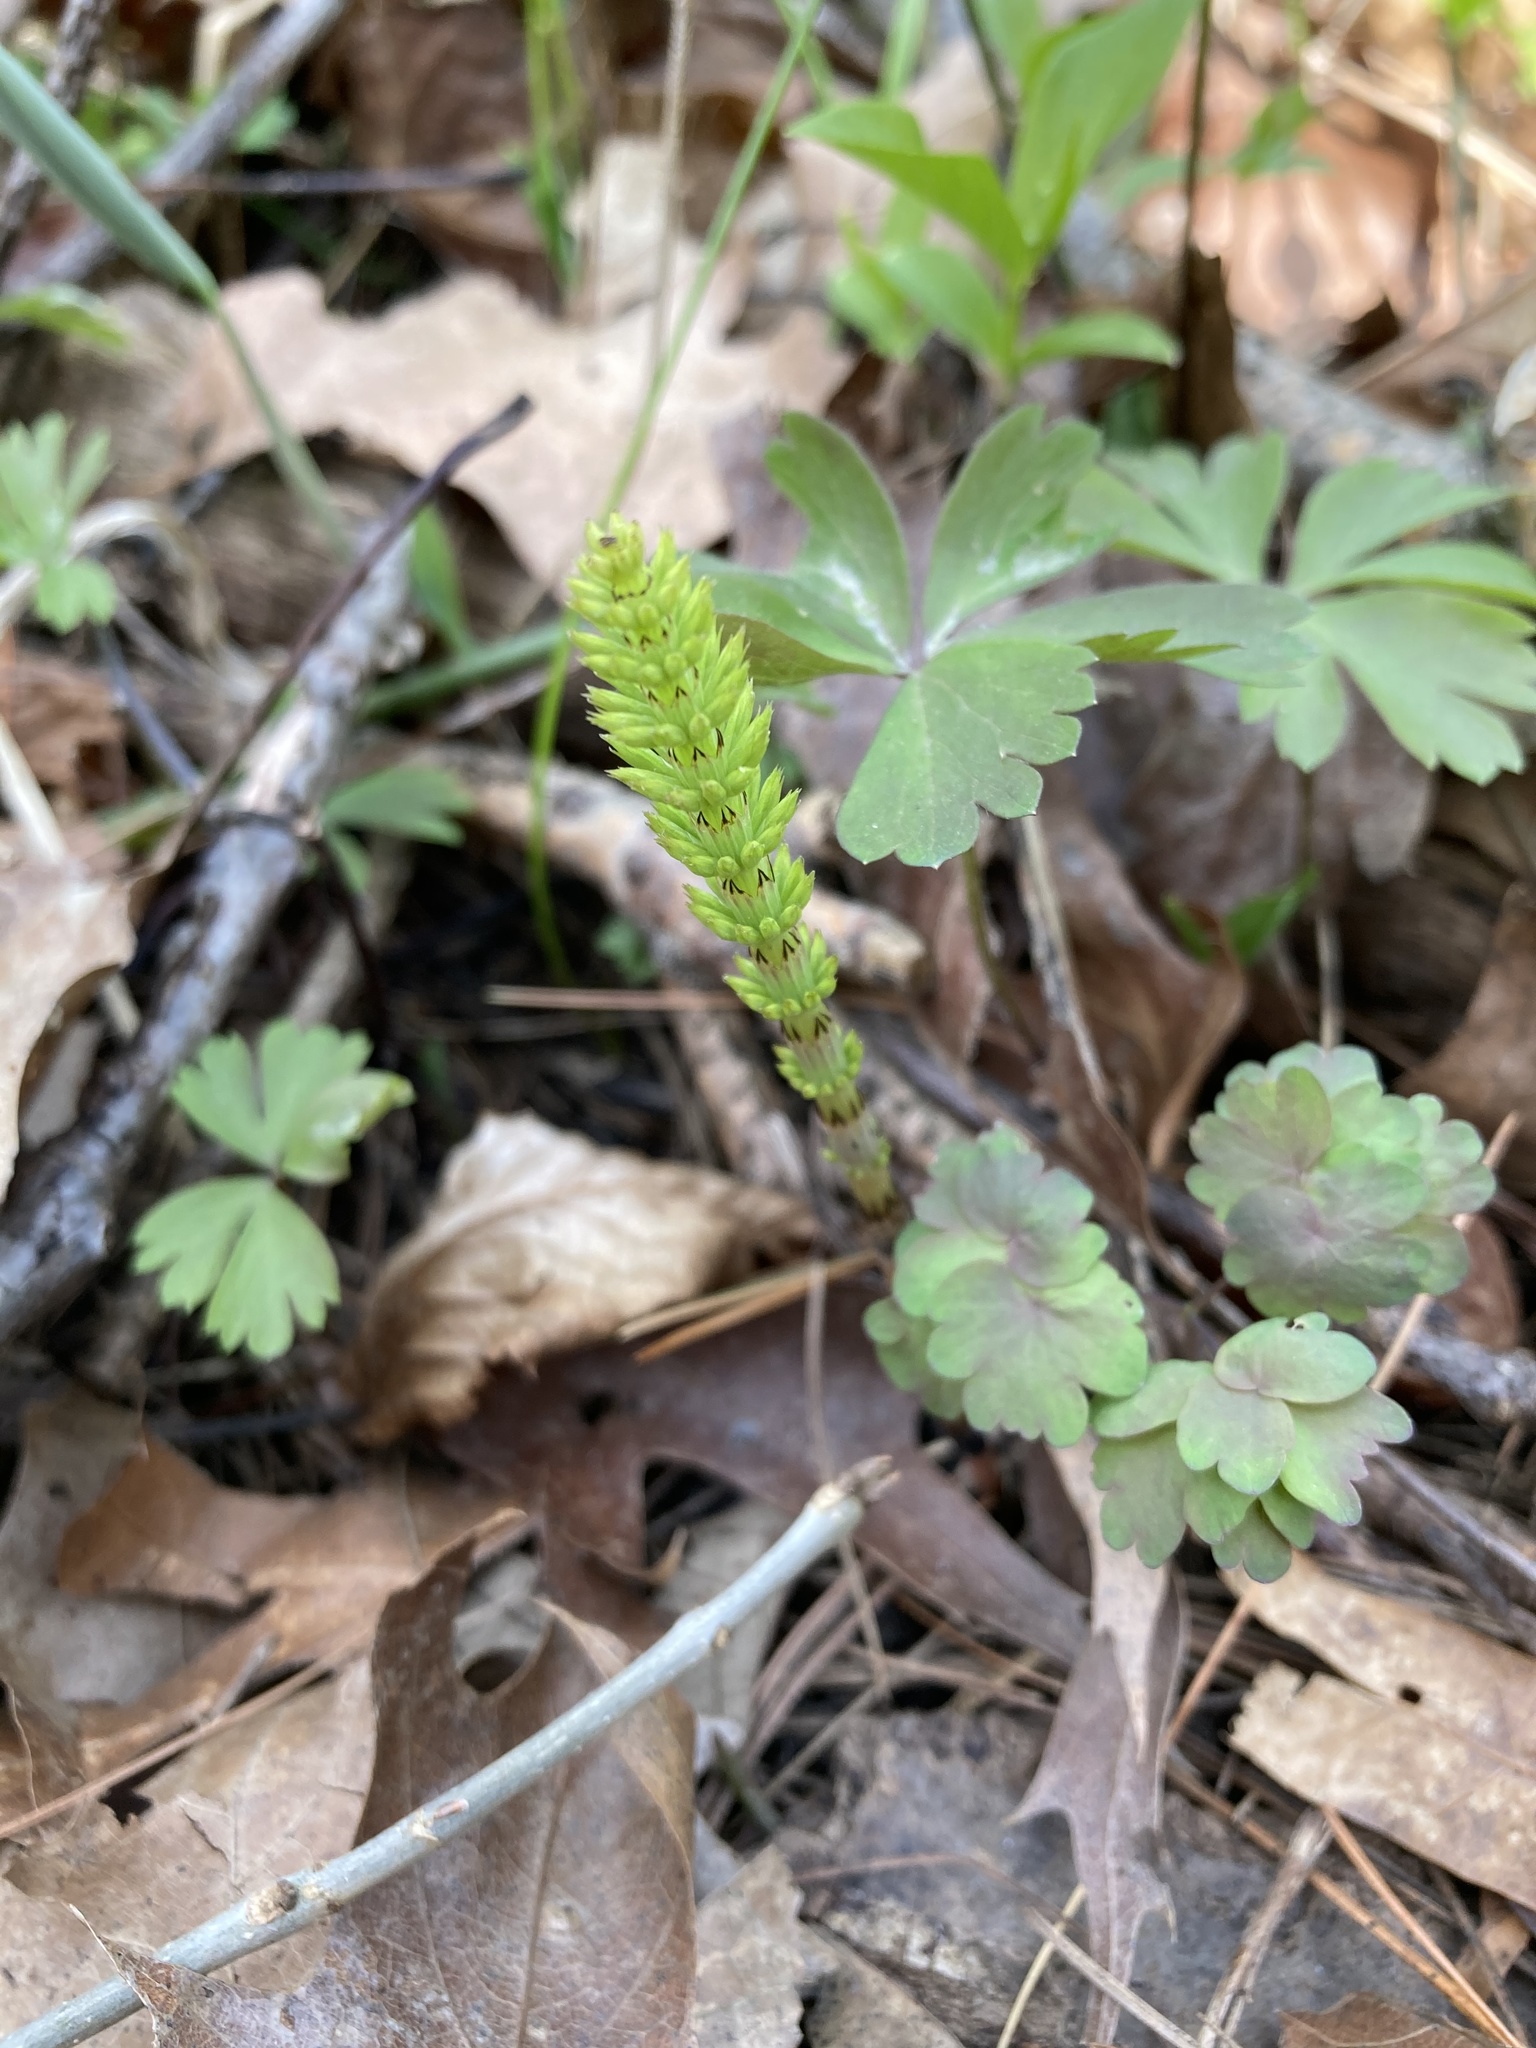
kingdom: Plantae
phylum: Tracheophyta
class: Polypodiopsida
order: Equisetales
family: Equisetaceae
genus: Equisetum
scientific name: Equisetum arvense
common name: Field horsetail
